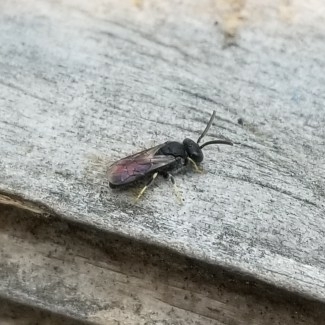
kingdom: Animalia
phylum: Arthropoda
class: Insecta
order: Hymenoptera
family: Colletidae
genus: Hylaeus
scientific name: Hylaeus
